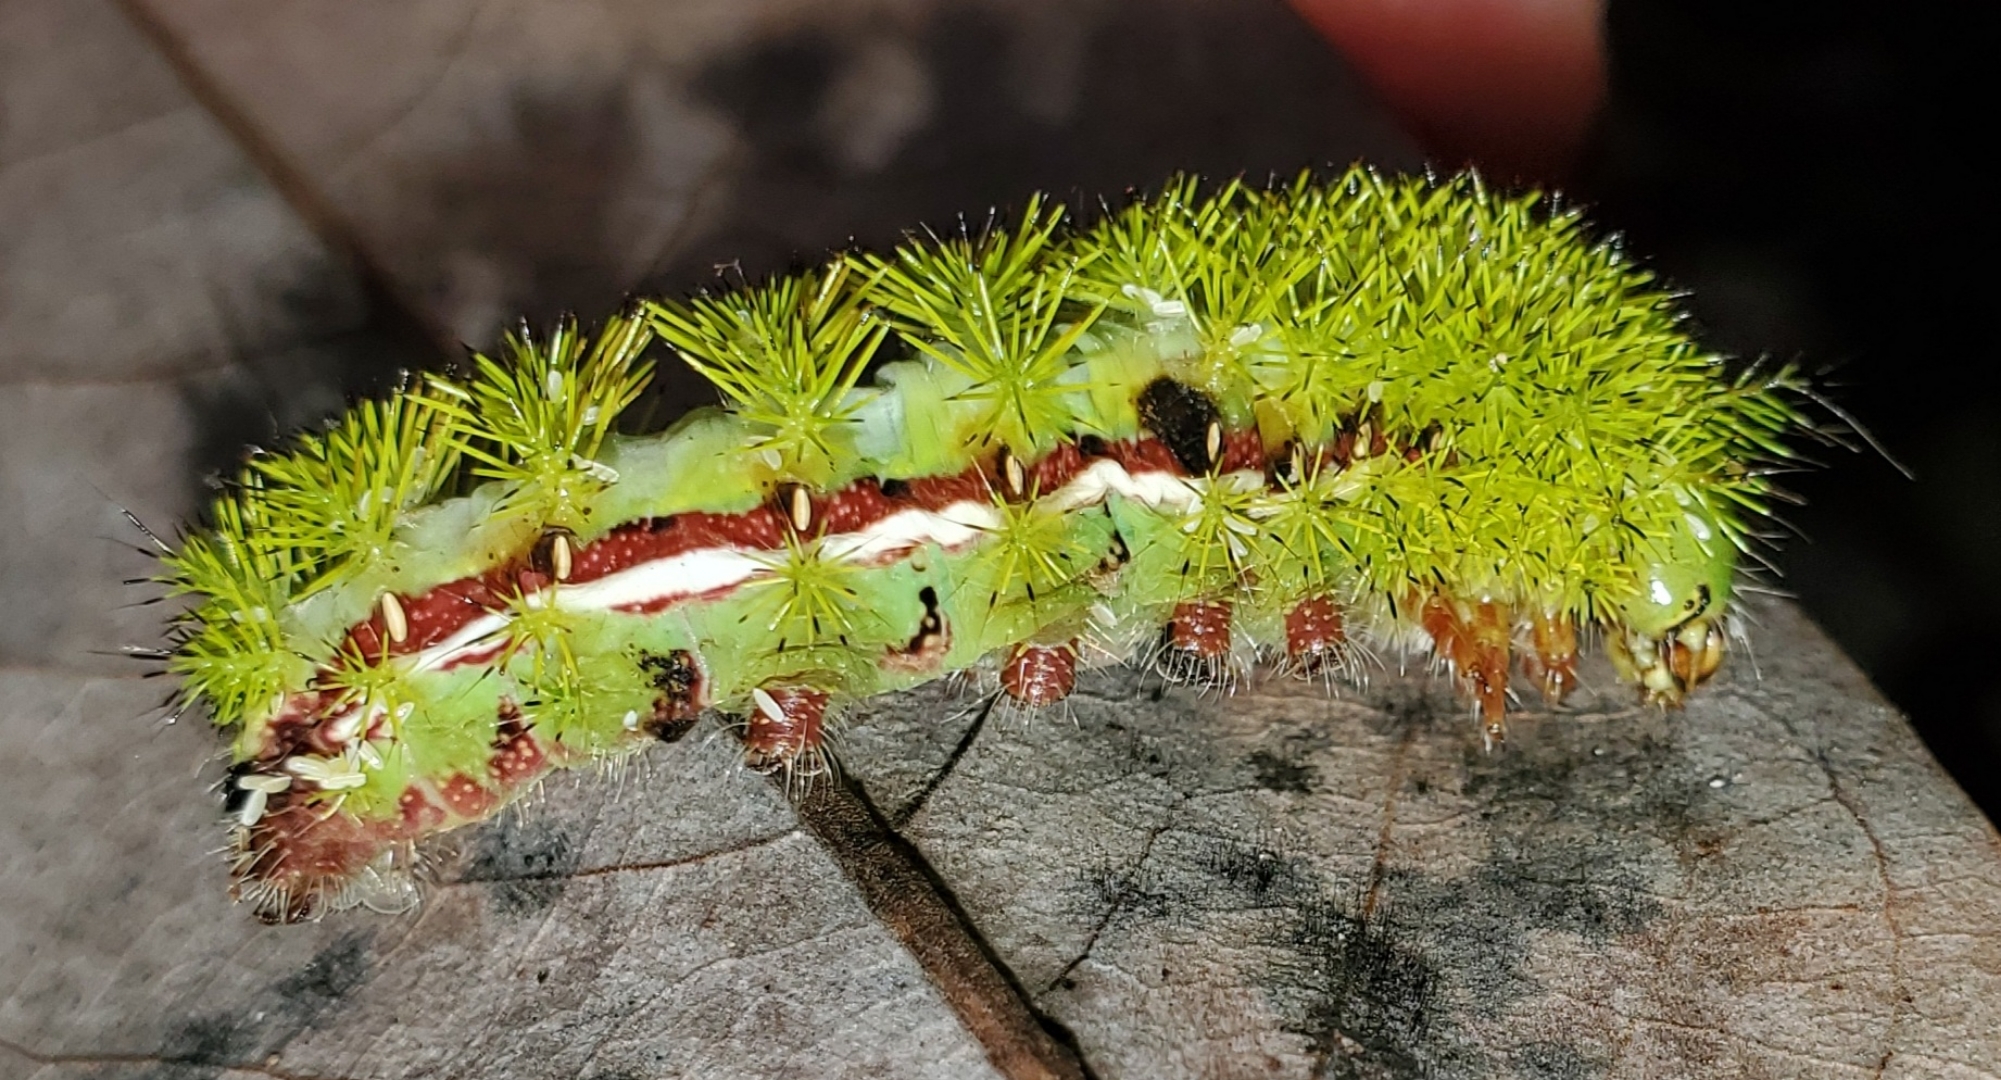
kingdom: Animalia
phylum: Arthropoda
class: Insecta
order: Lepidoptera
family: Saturniidae
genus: Automeris
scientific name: Automeris io
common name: Io moth
